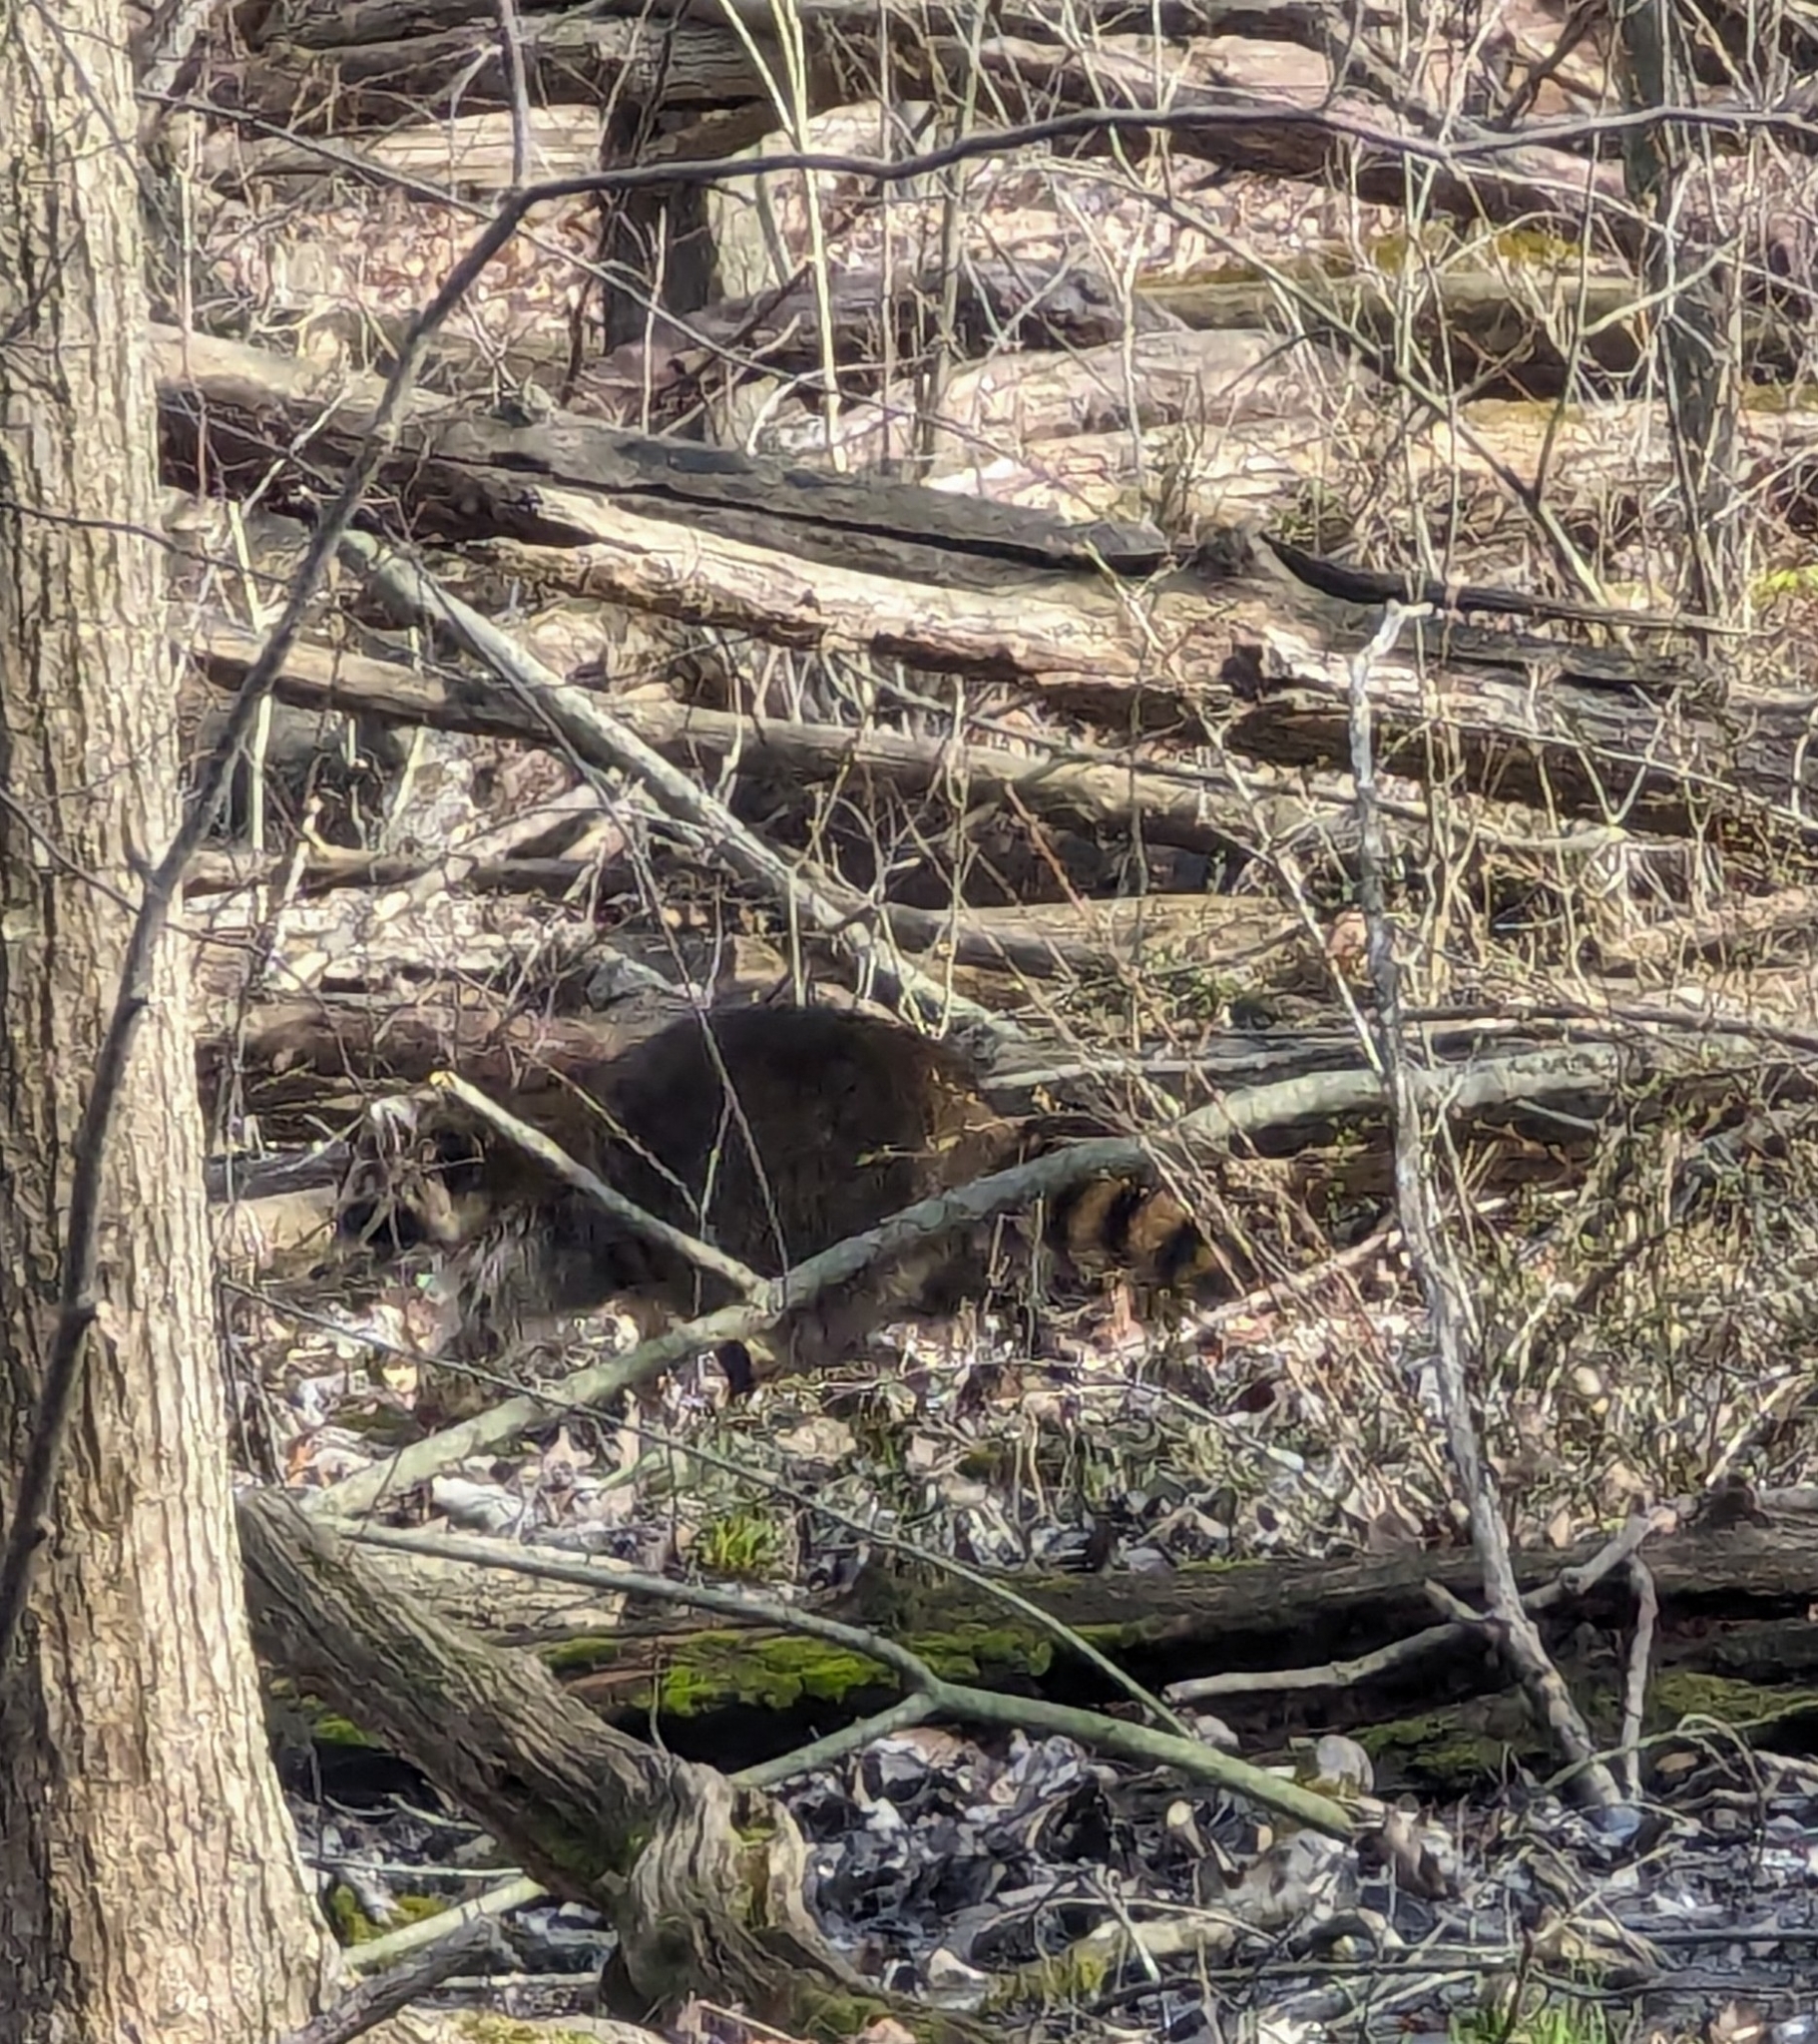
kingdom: Animalia
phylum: Chordata
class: Mammalia
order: Carnivora
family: Procyonidae
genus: Procyon
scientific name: Procyon lotor
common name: Raccoon
